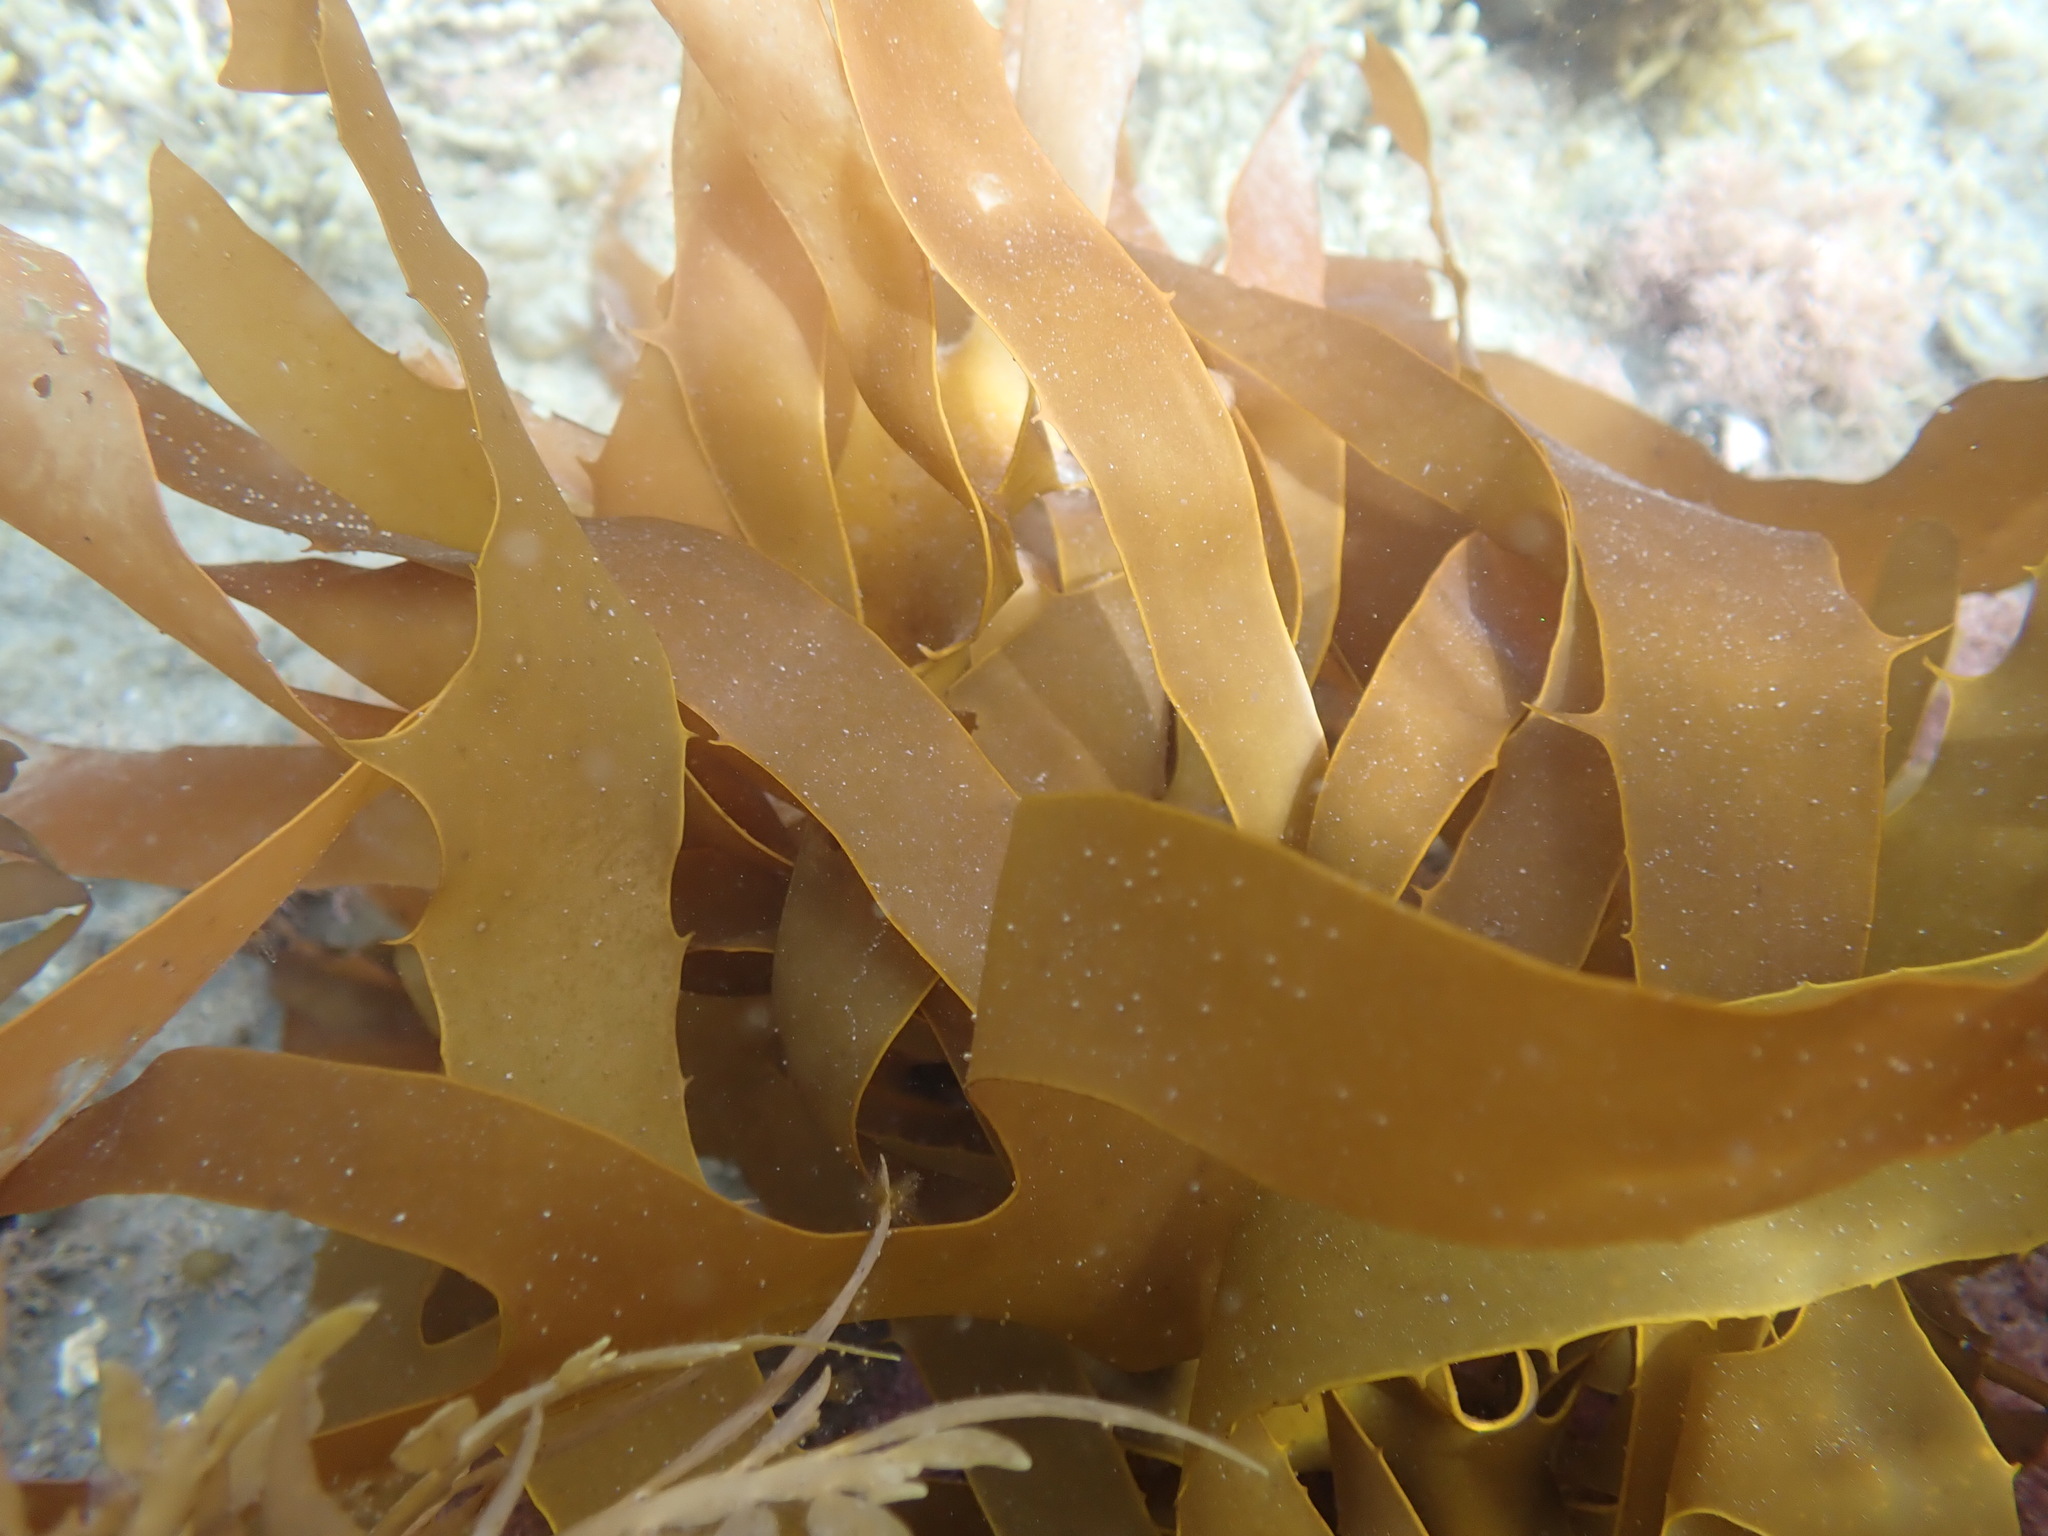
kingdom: Chromista
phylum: Ochrophyta
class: Phaeophyceae
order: Laminariales
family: Lessoniaceae
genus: Ecklonia
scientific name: Ecklonia radiata
